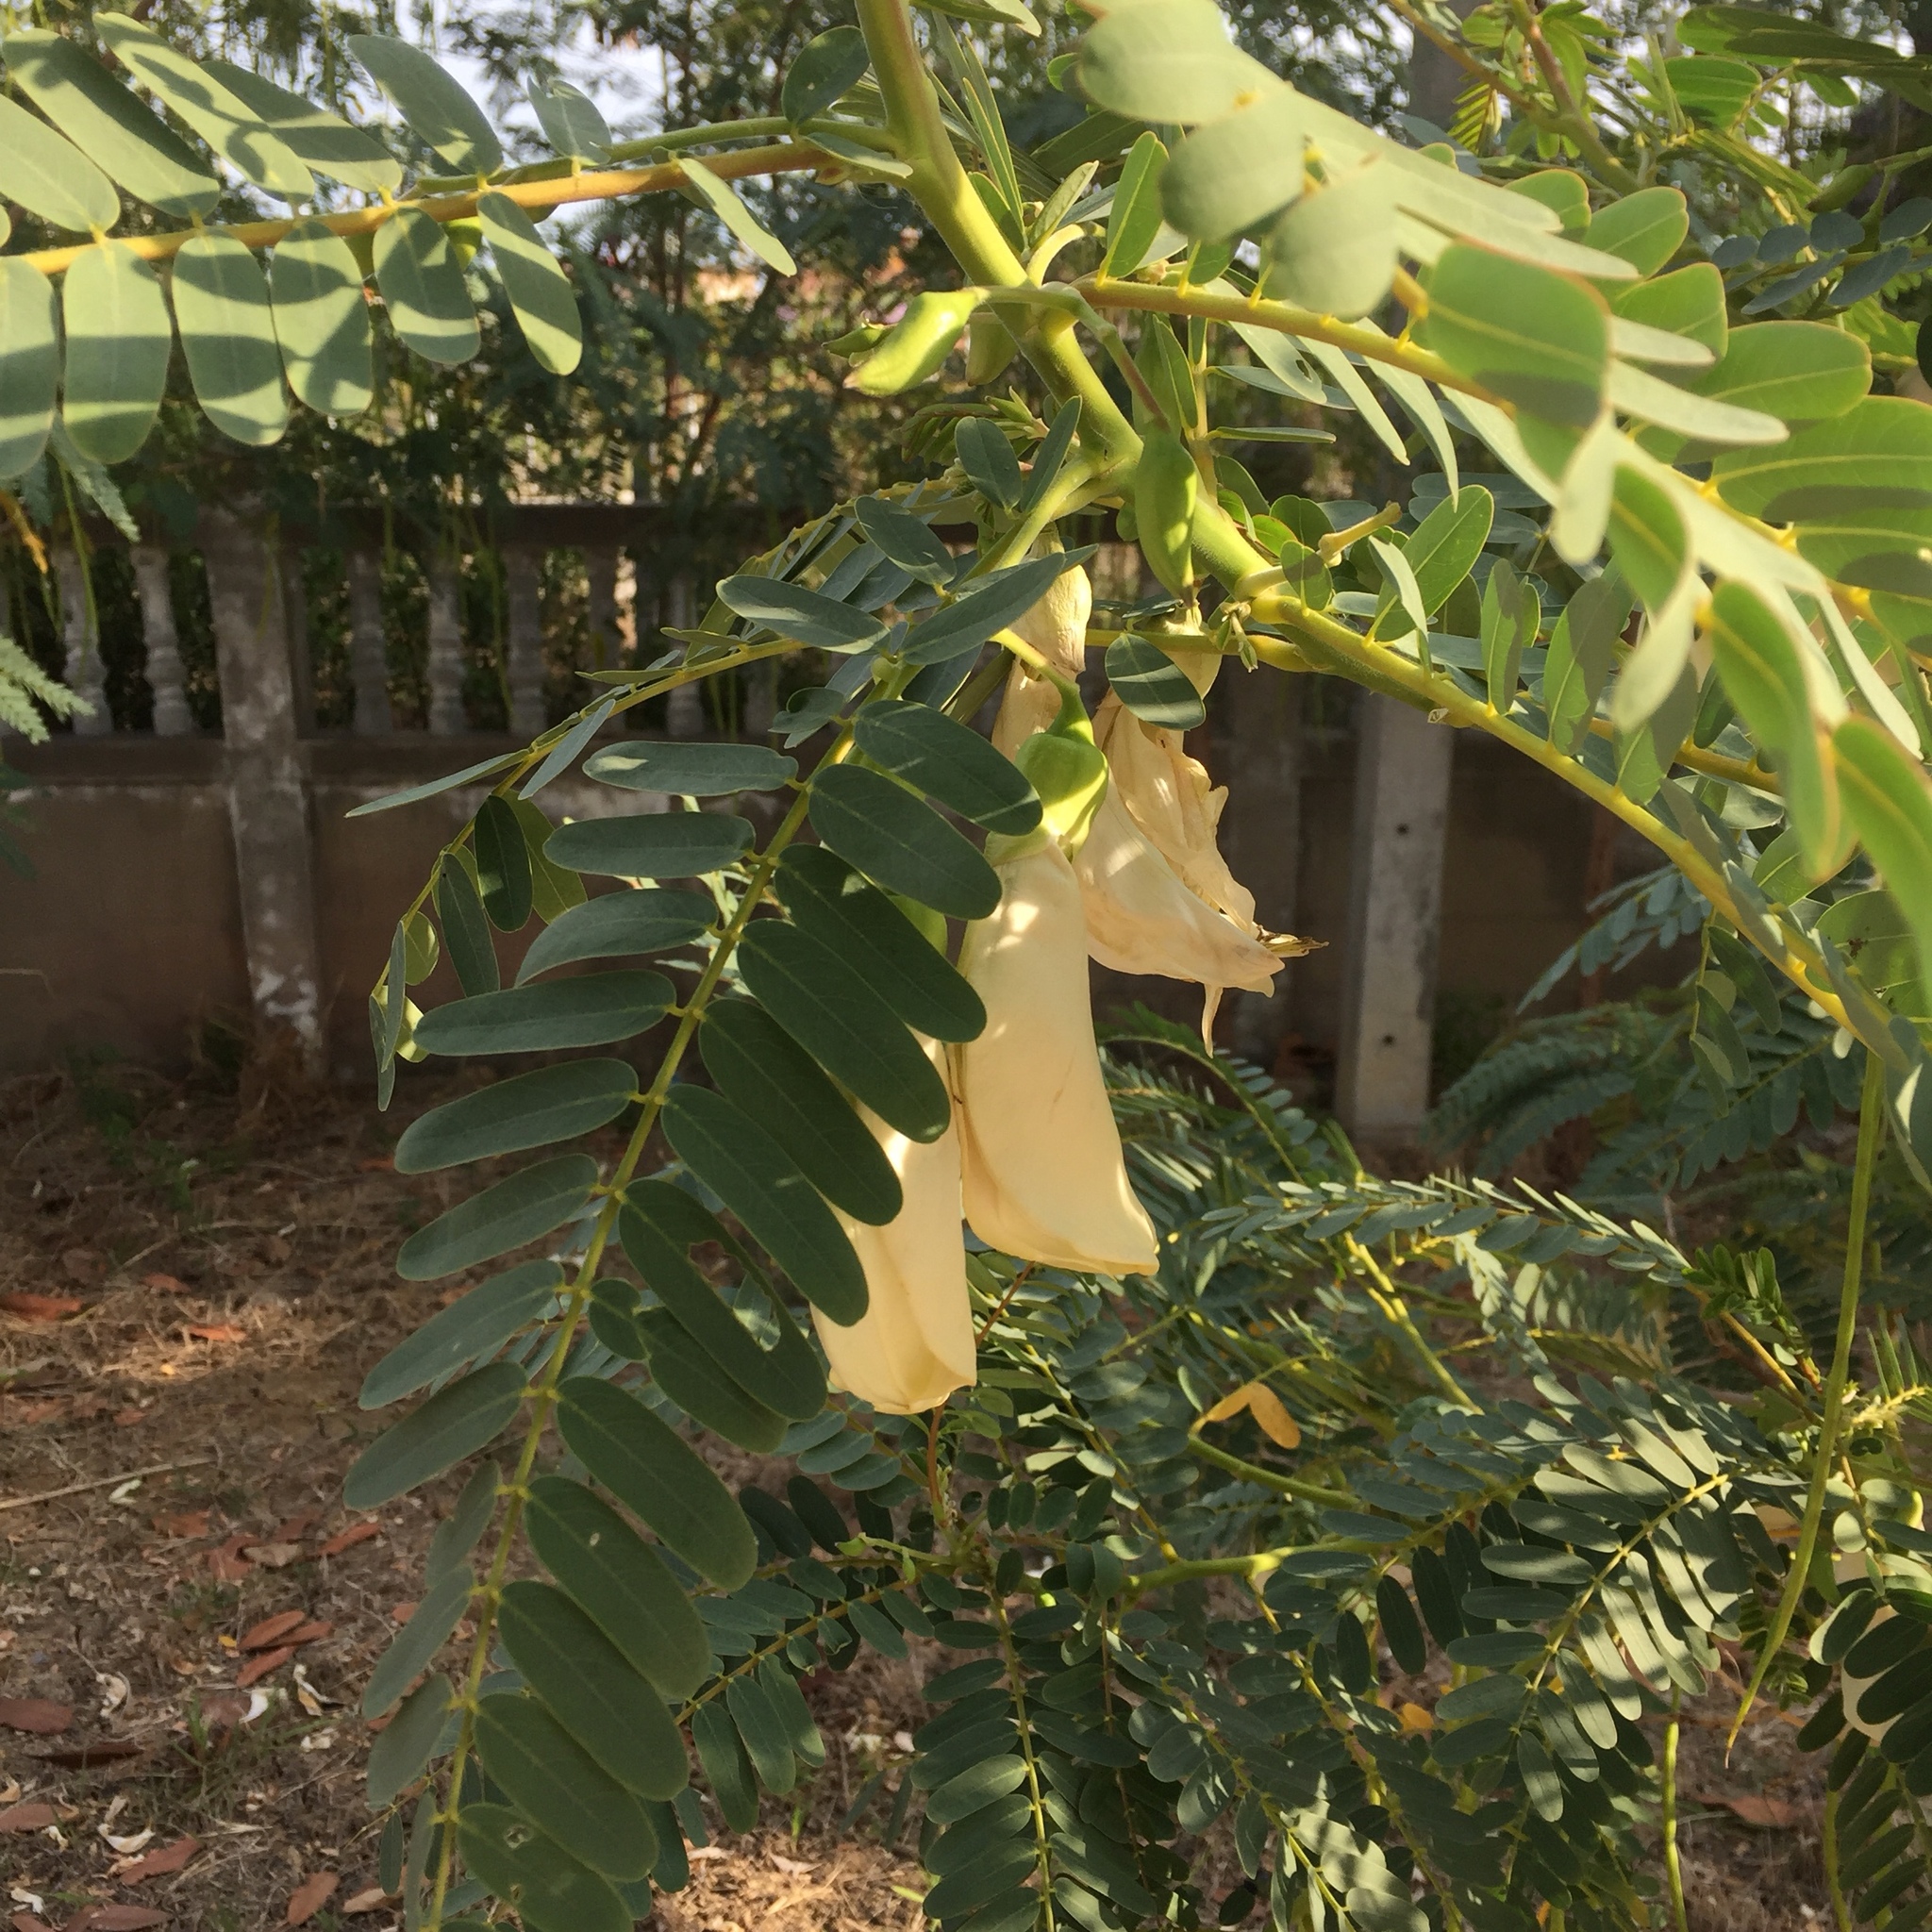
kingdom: Plantae
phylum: Tracheophyta
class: Magnoliopsida
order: Fabales
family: Fabaceae
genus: Sesbania
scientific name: Sesbania grandiflora
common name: Vegetable-hummingbird
